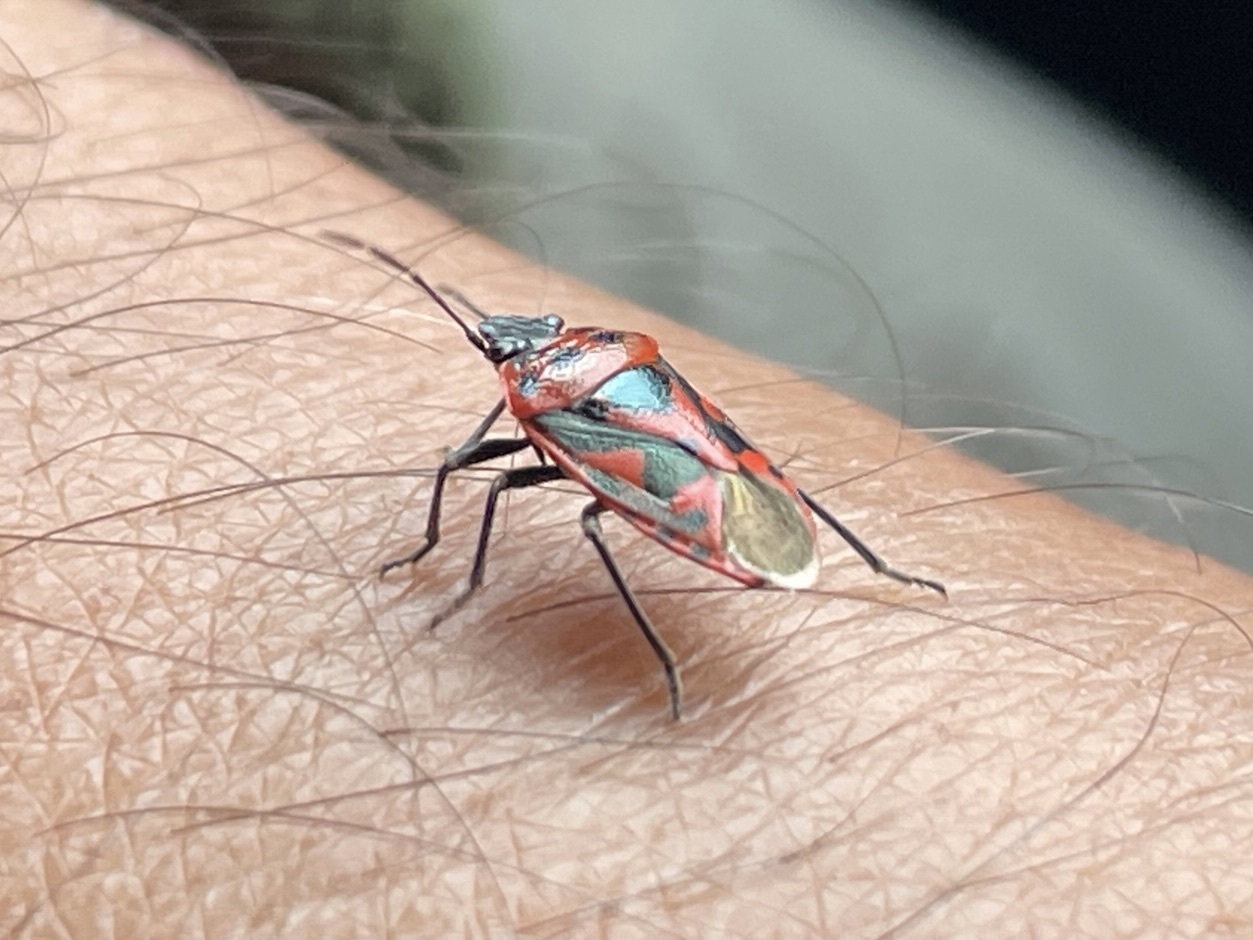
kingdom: Animalia
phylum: Arthropoda
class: Insecta
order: Hemiptera
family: Pentatomidae
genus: Eurydema
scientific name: Eurydema ornata
